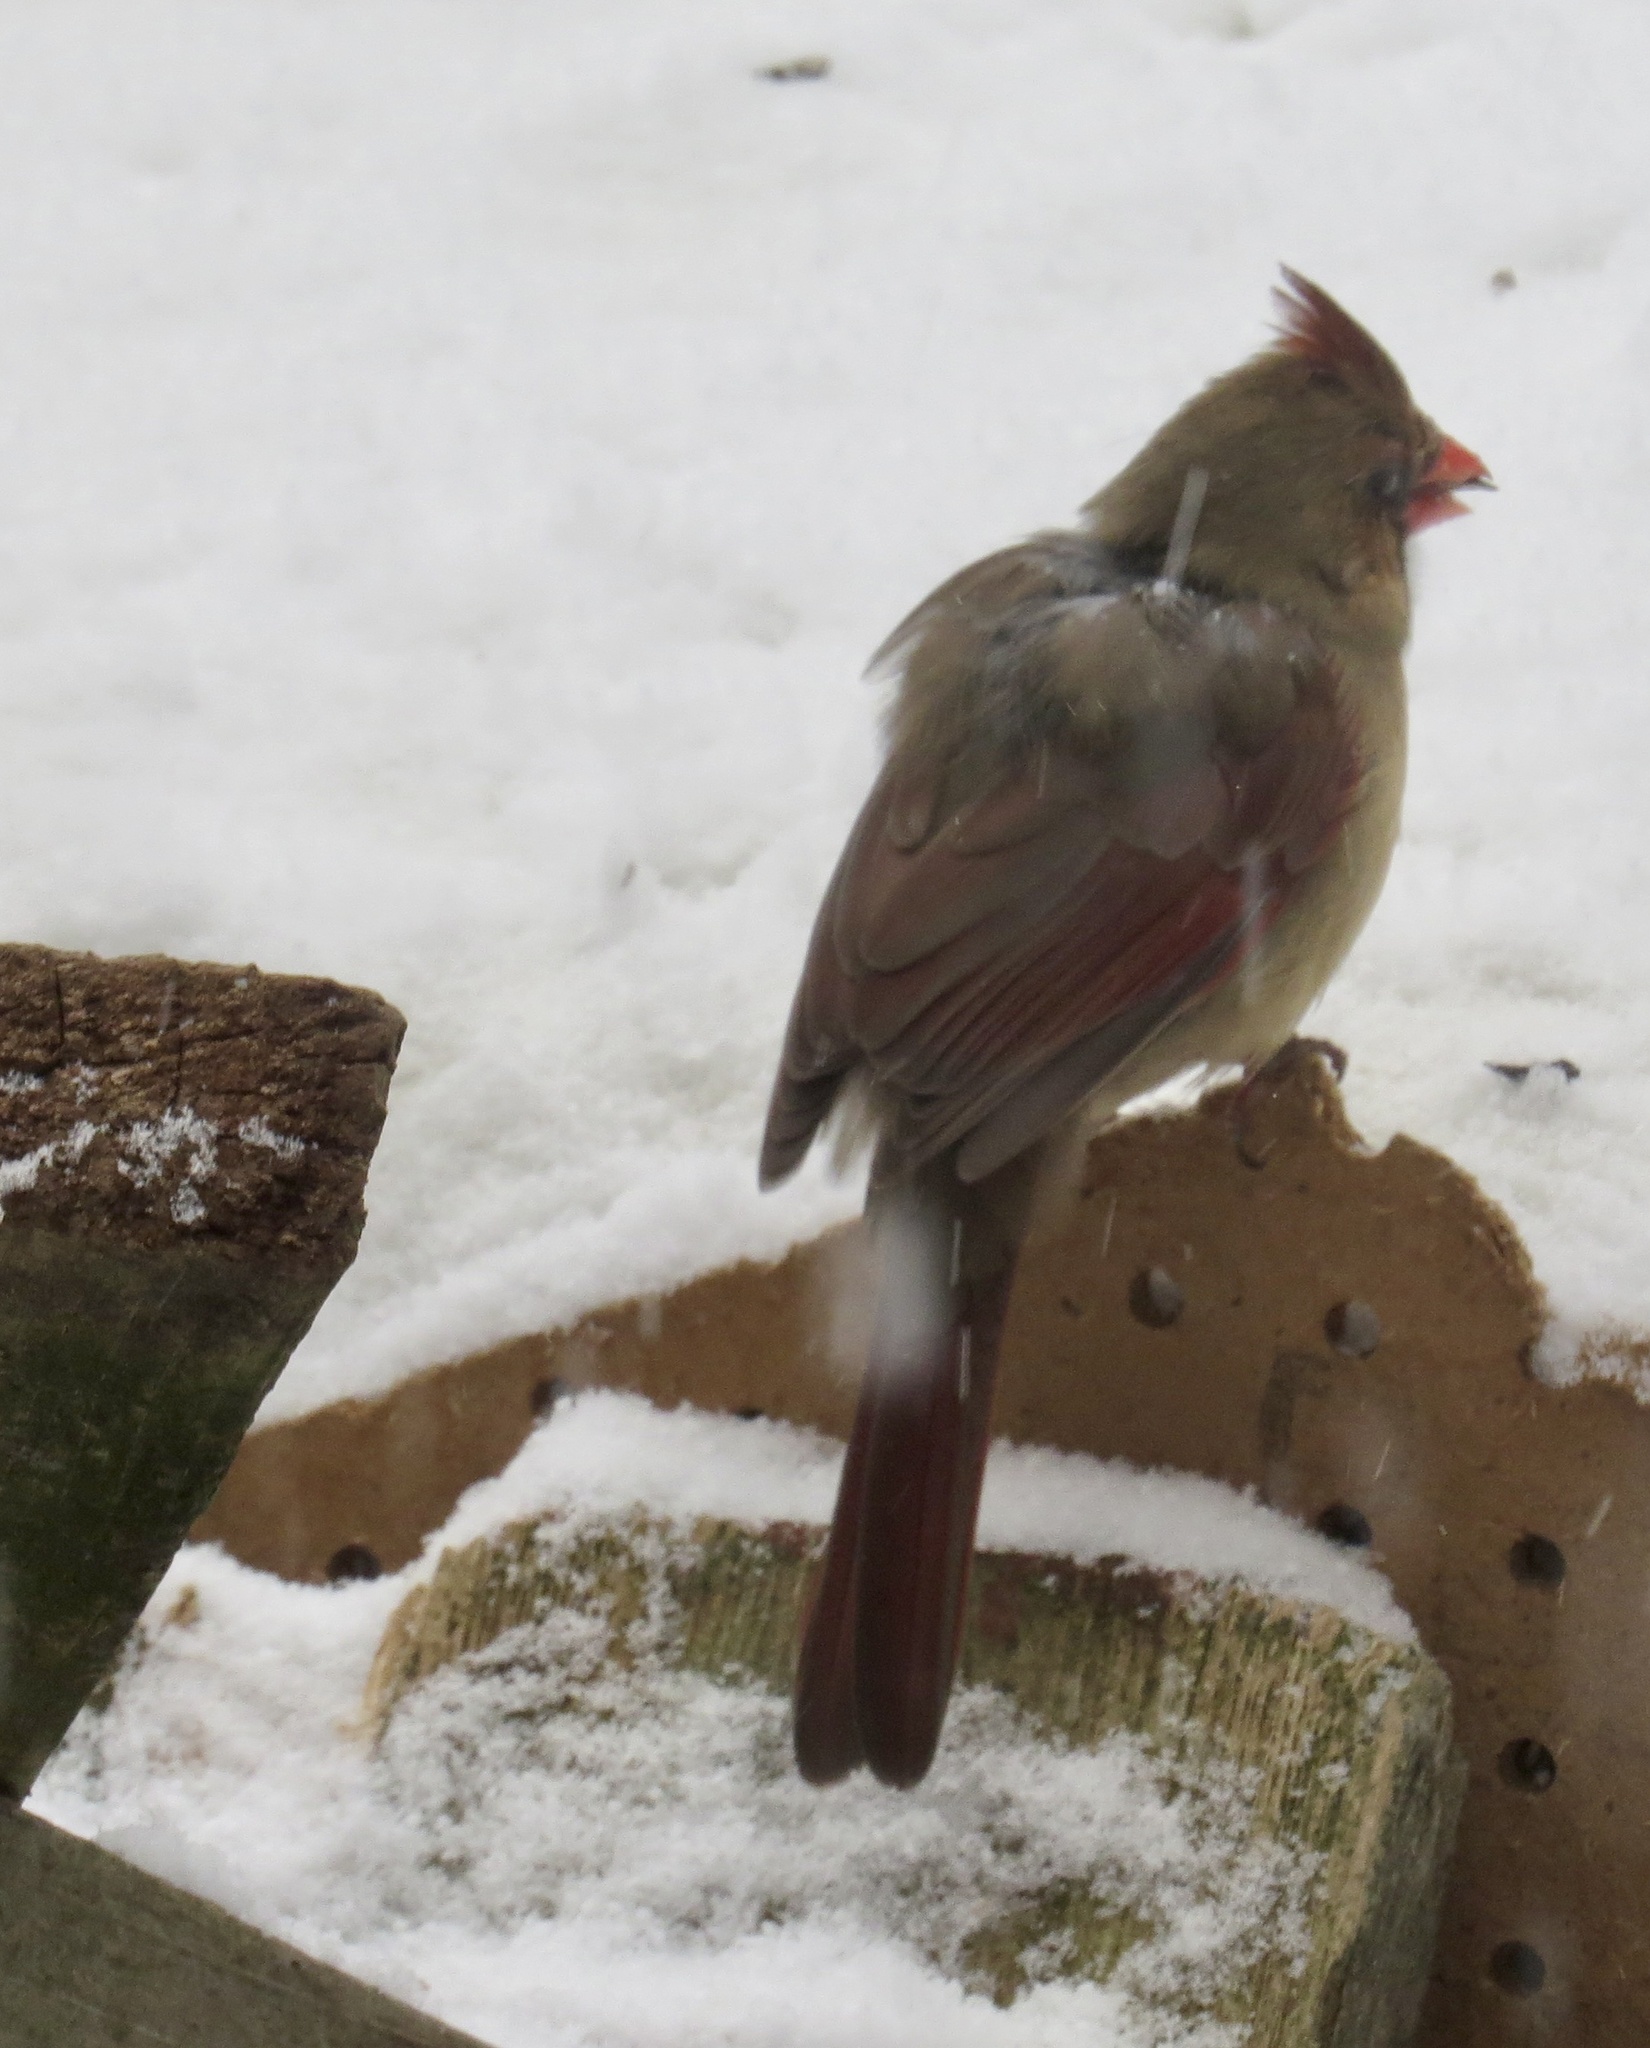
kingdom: Animalia
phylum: Chordata
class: Aves
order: Passeriformes
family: Cardinalidae
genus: Cardinalis
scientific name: Cardinalis cardinalis
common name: Northern cardinal
